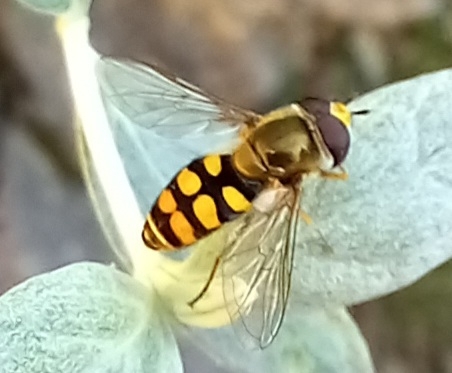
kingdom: Animalia
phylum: Arthropoda
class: Insecta
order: Diptera
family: Syrphidae
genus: Eupeodes
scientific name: Eupeodes corollae
